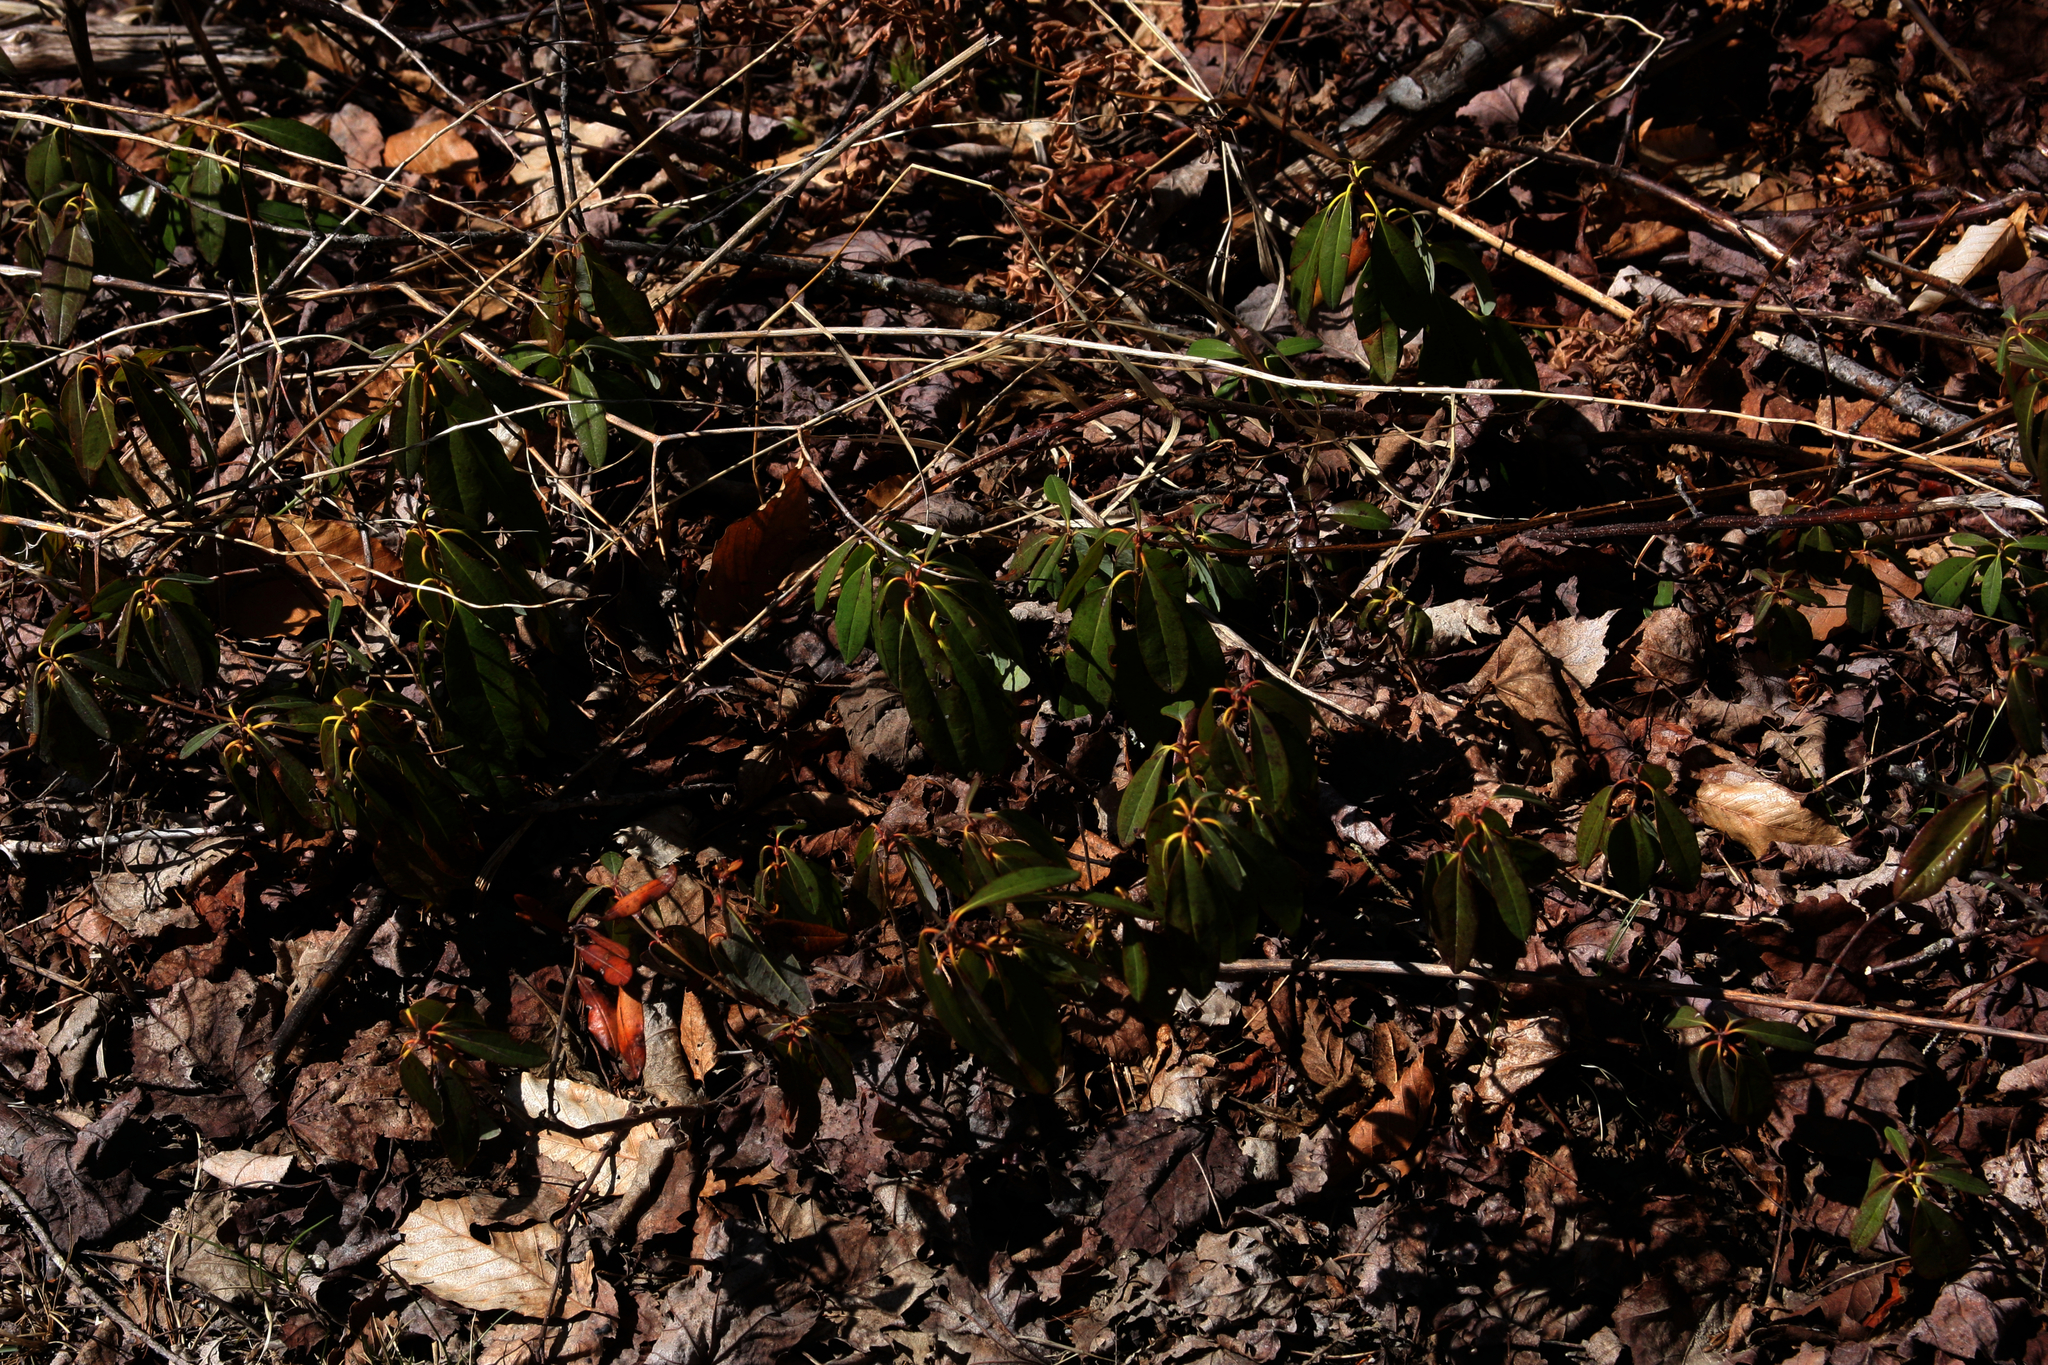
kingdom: Plantae
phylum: Tracheophyta
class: Magnoliopsida
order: Ericales
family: Ericaceae
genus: Kalmia
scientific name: Kalmia angustifolia
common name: Sheep-laurel
